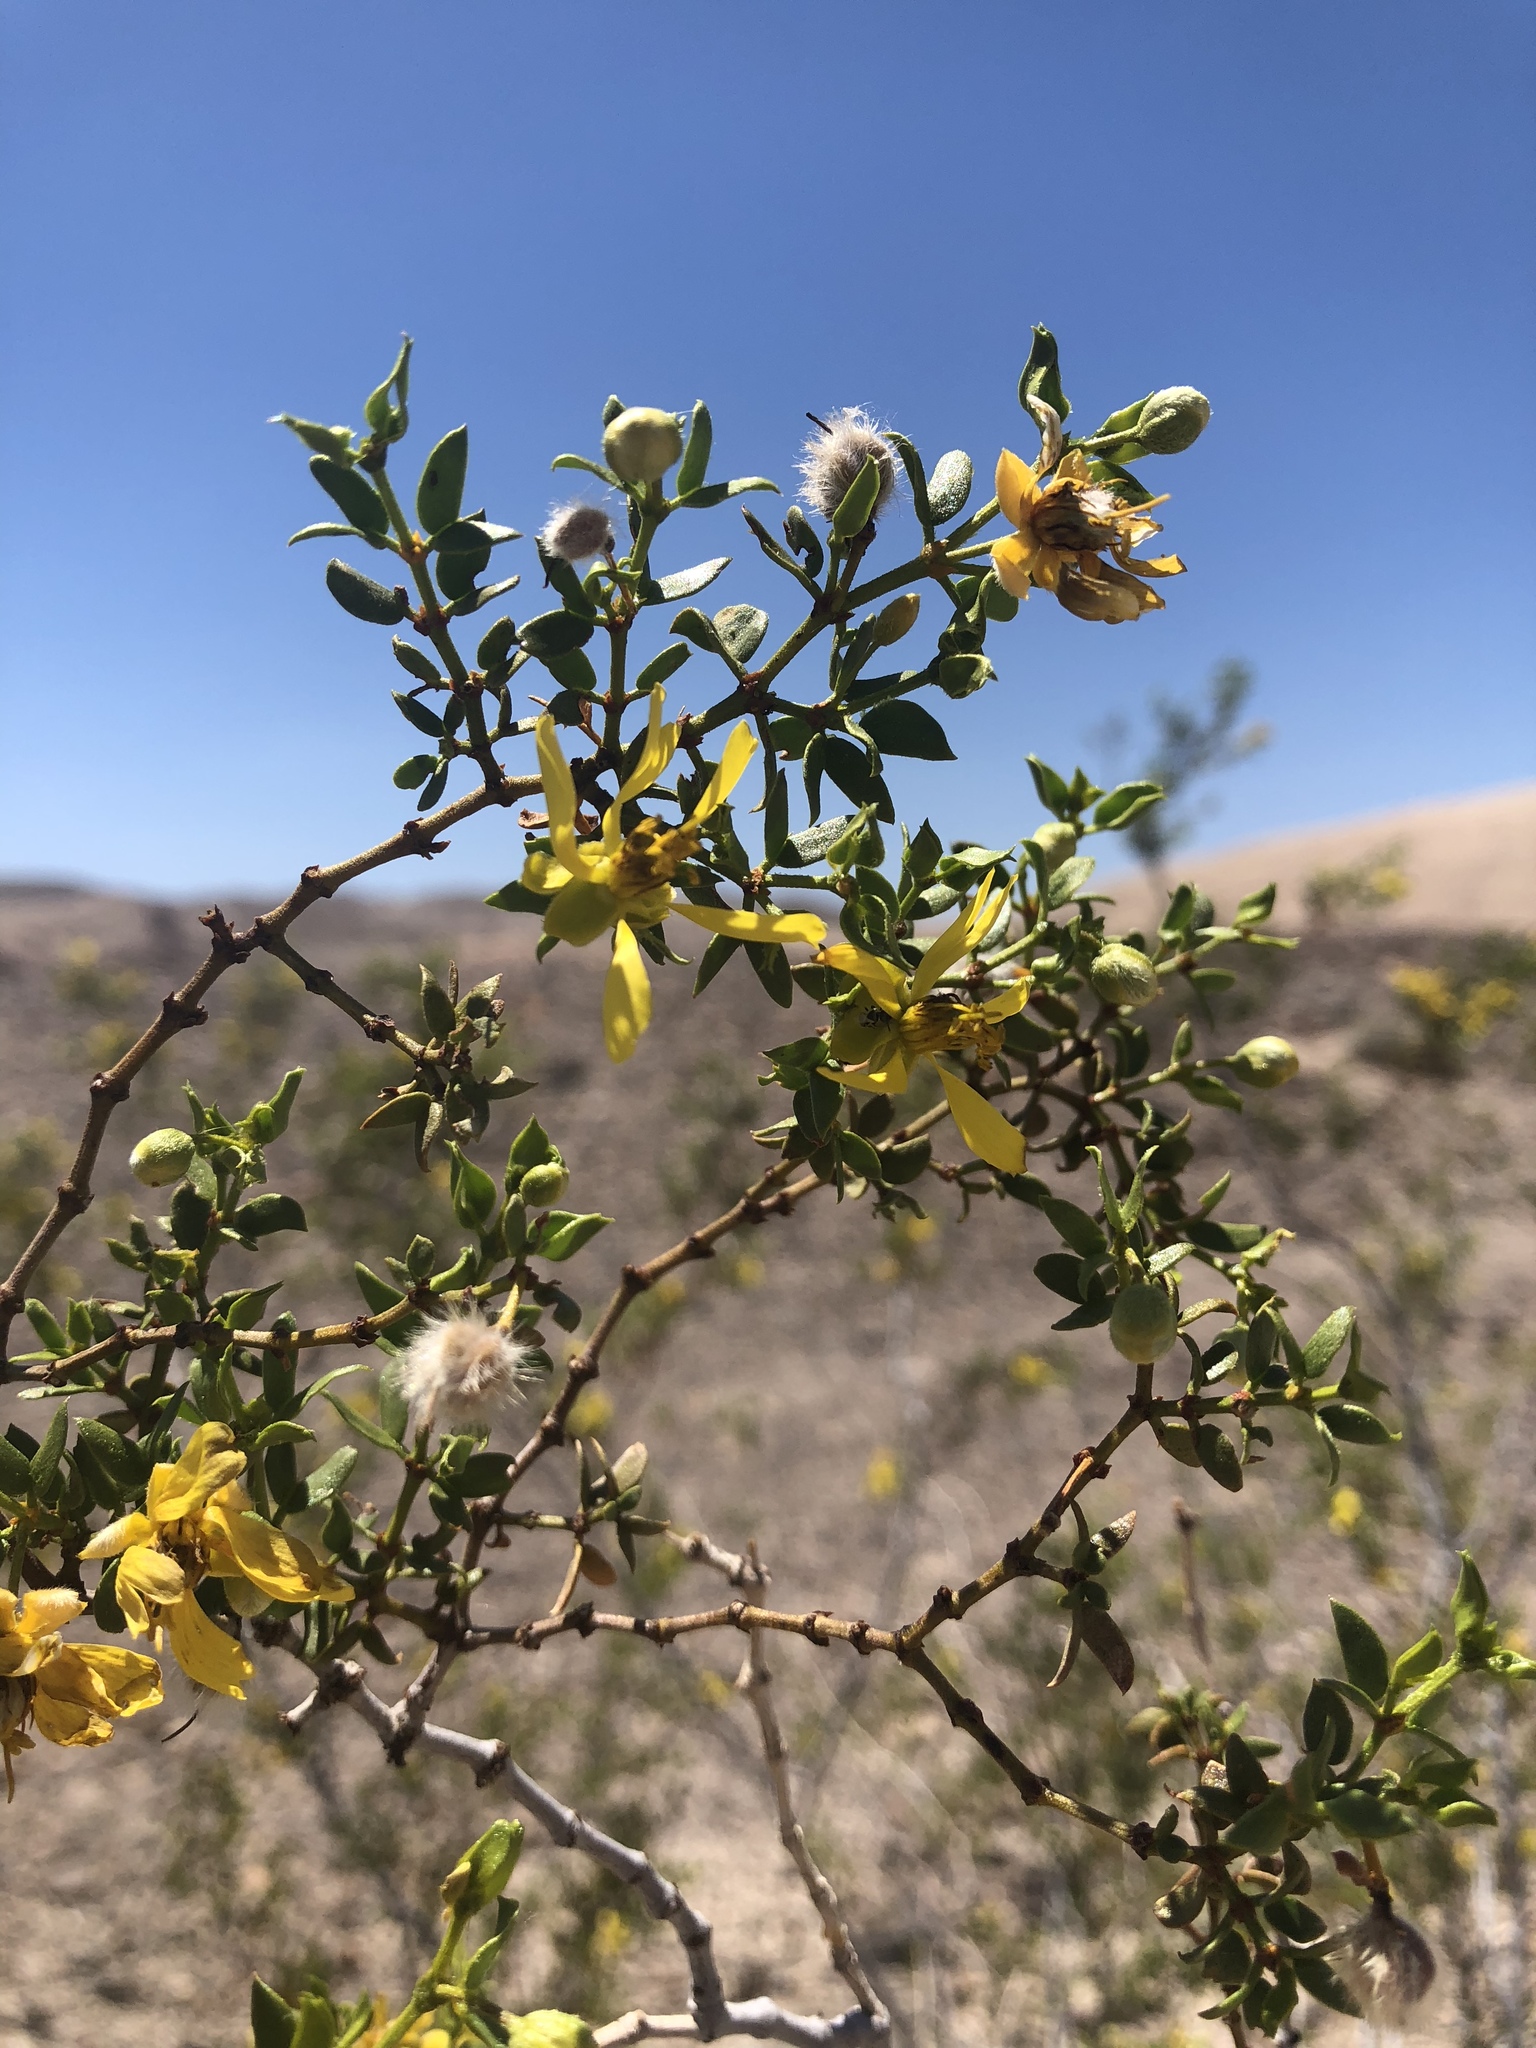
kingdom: Plantae
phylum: Tracheophyta
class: Magnoliopsida
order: Zygophyllales
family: Zygophyllaceae
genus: Larrea
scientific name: Larrea tridentata
